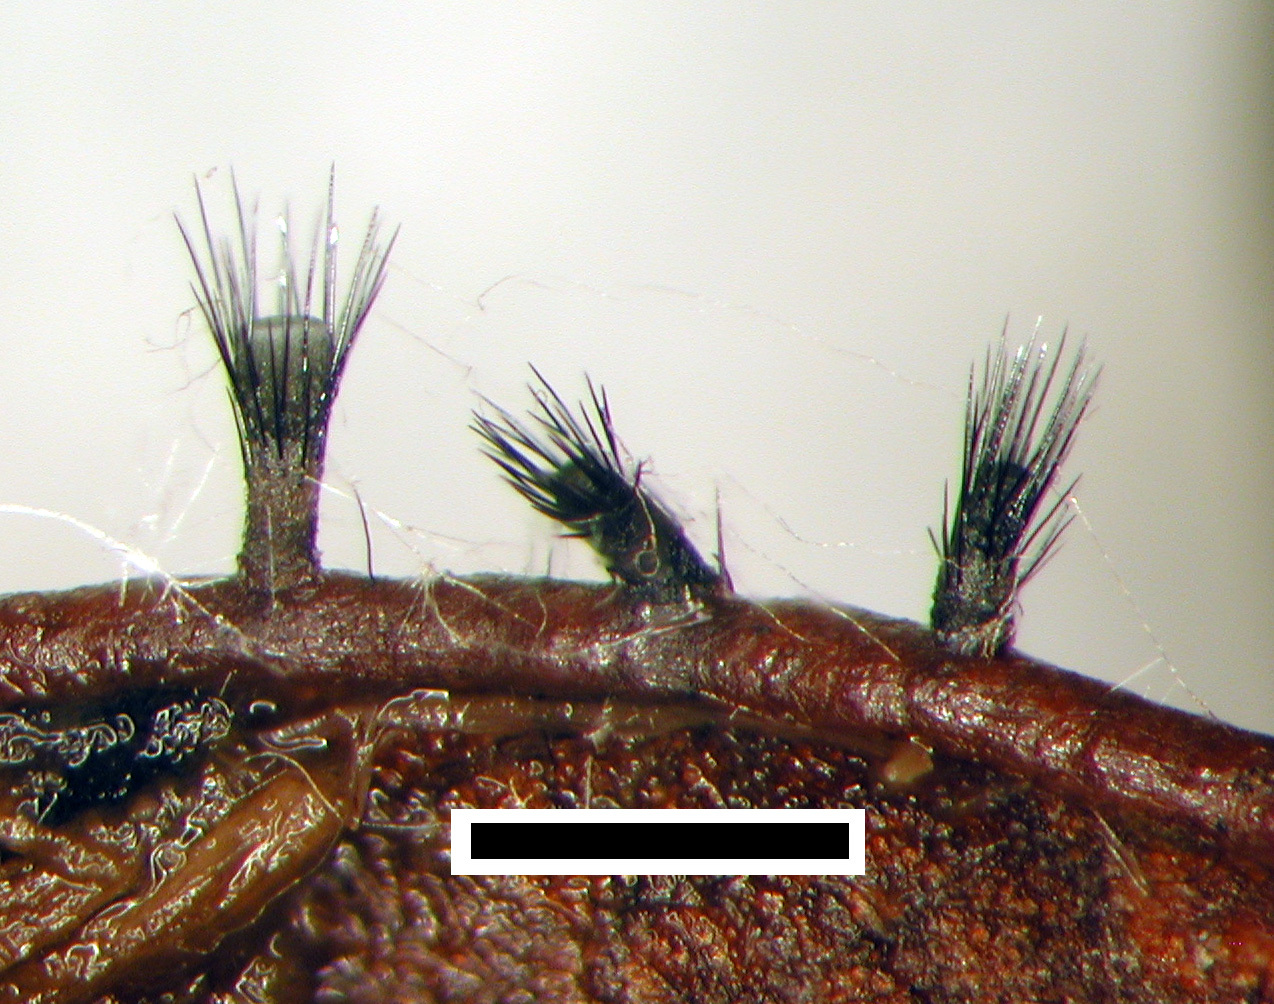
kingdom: Fungi
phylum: Ascomycota
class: Leotiomycetes
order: Helotiales
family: Helotiaceae
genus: Hymenotorrendiella
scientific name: Hymenotorrendiella dingleyae
